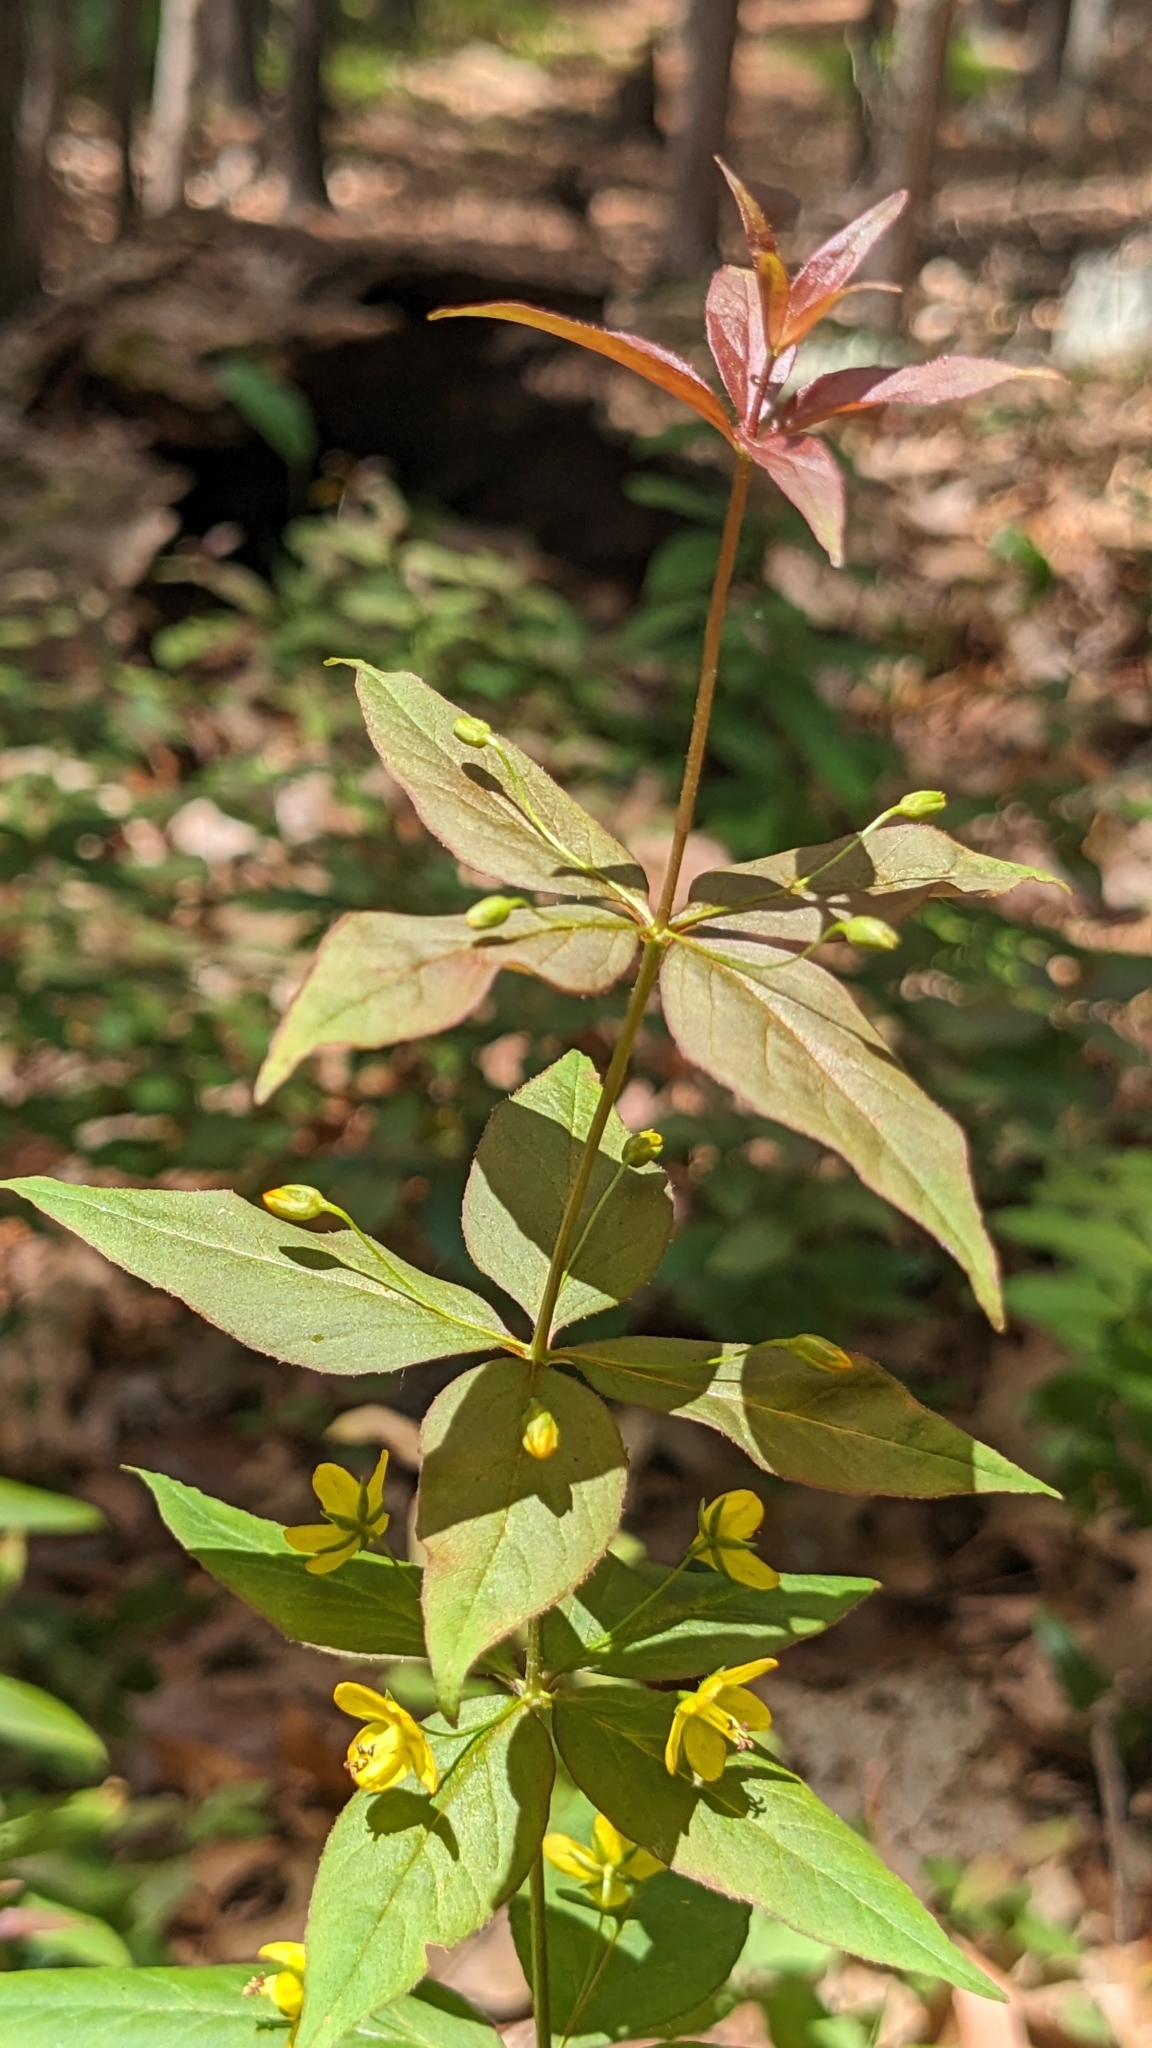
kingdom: Plantae
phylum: Tracheophyta
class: Magnoliopsida
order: Ericales
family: Primulaceae
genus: Lysimachia
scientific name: Lysimachia quadrifolia
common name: Whorled loosestrife
